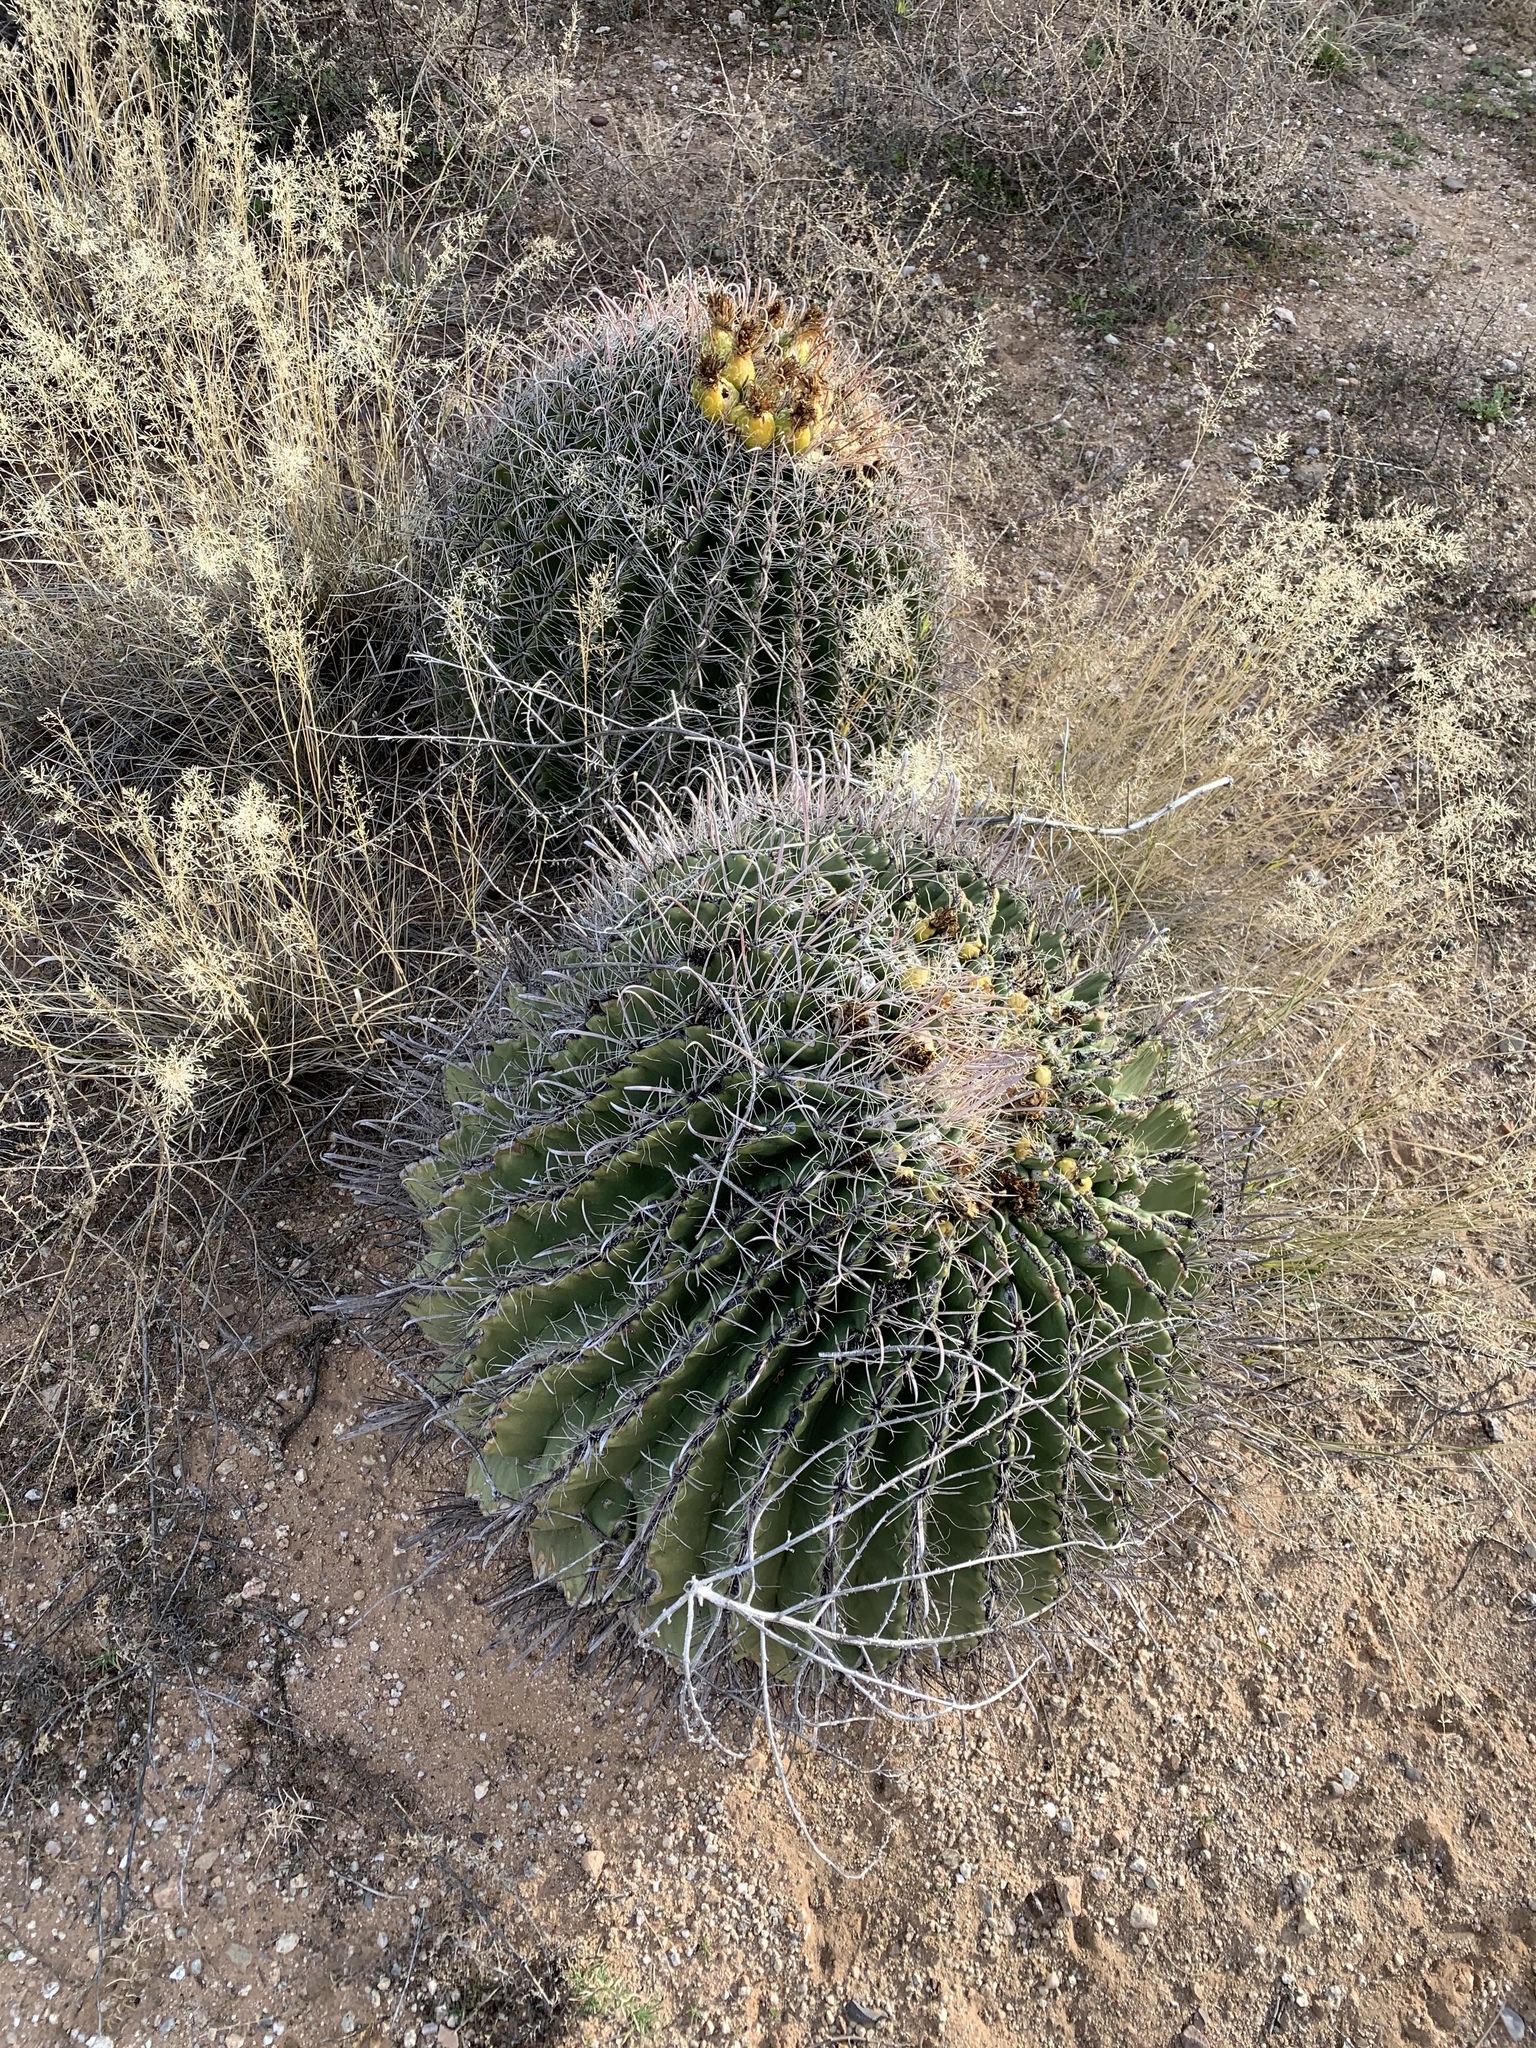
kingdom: Plantae
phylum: Tracheophyta
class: Magnoliopsida
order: Caryophyllales
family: Cactaceae
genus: Ferocactus
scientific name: Ferocactus wislizeni
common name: Candy barrel cactus
